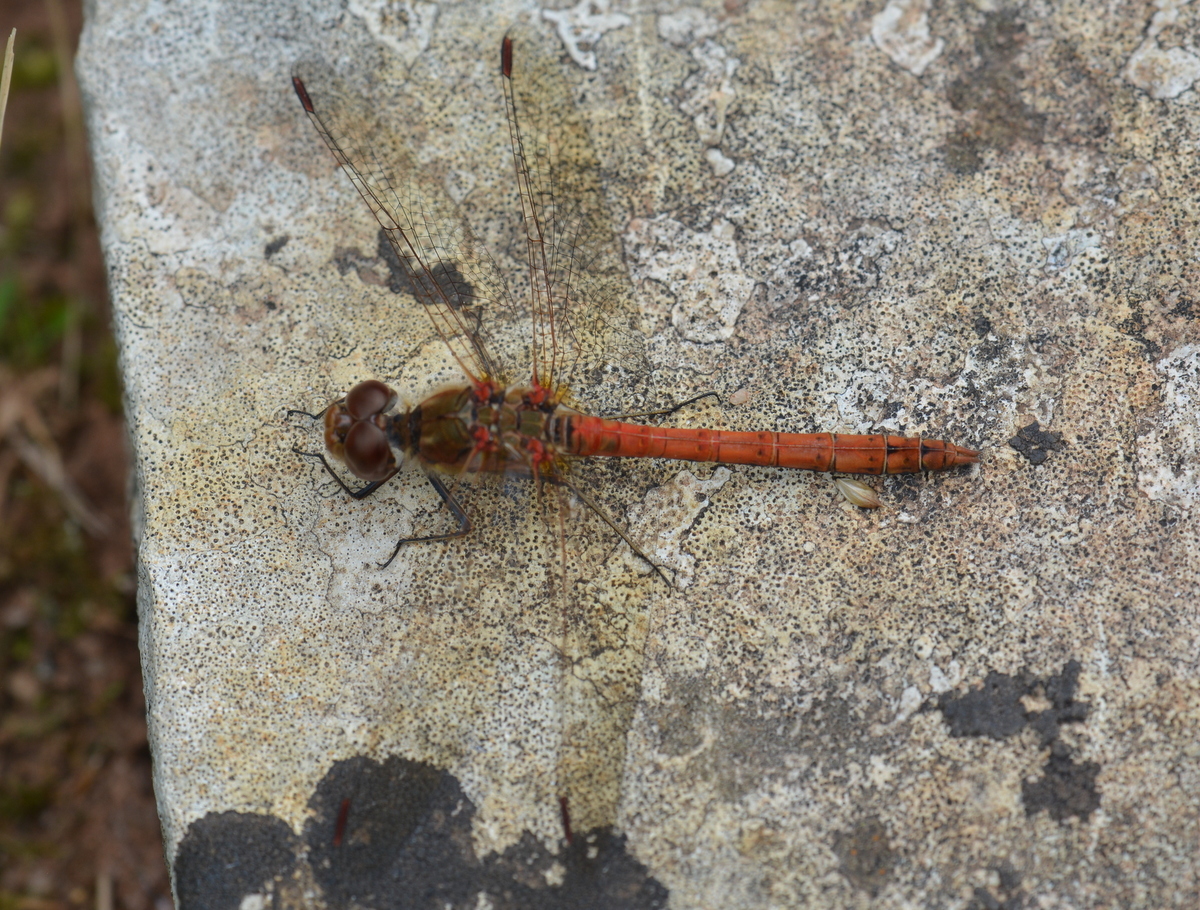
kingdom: Animalia
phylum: Arthropoda
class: Insecta
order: Odonata
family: Libellulidae
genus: Sympetrum
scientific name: Sympetrum striolatum
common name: Common darter
